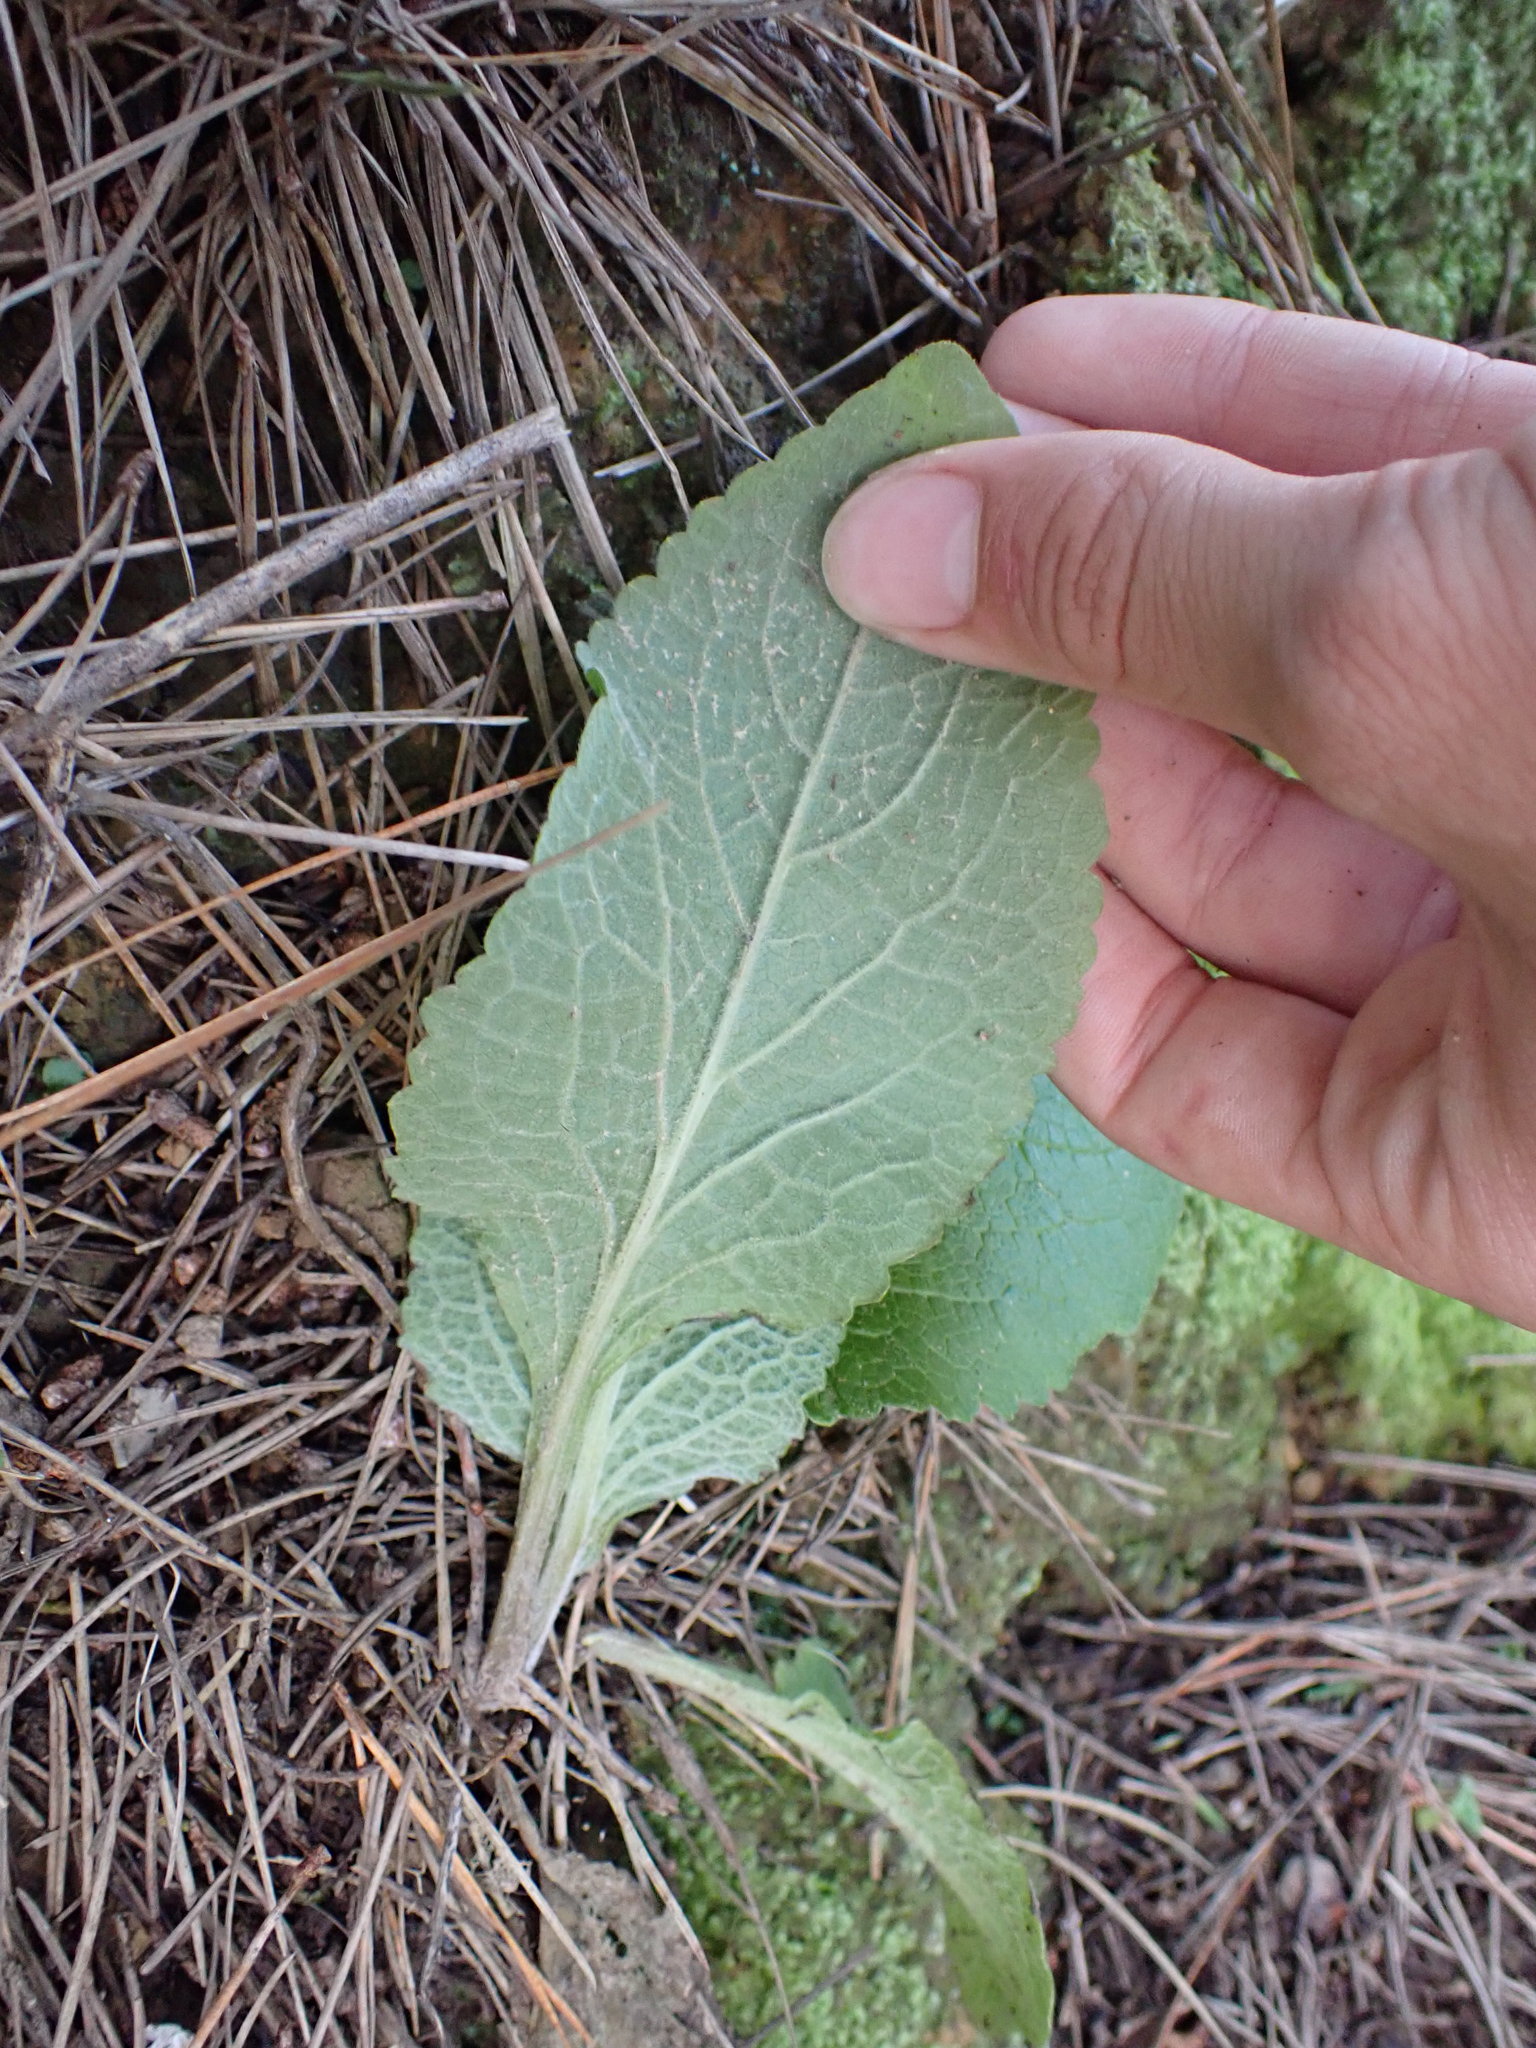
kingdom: Plantae
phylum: Tracheophyta
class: Magnoliopsida
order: Lamiales
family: Plantaginaceae
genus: Digitalis
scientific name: Digitalis purpurea
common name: Foxglove
